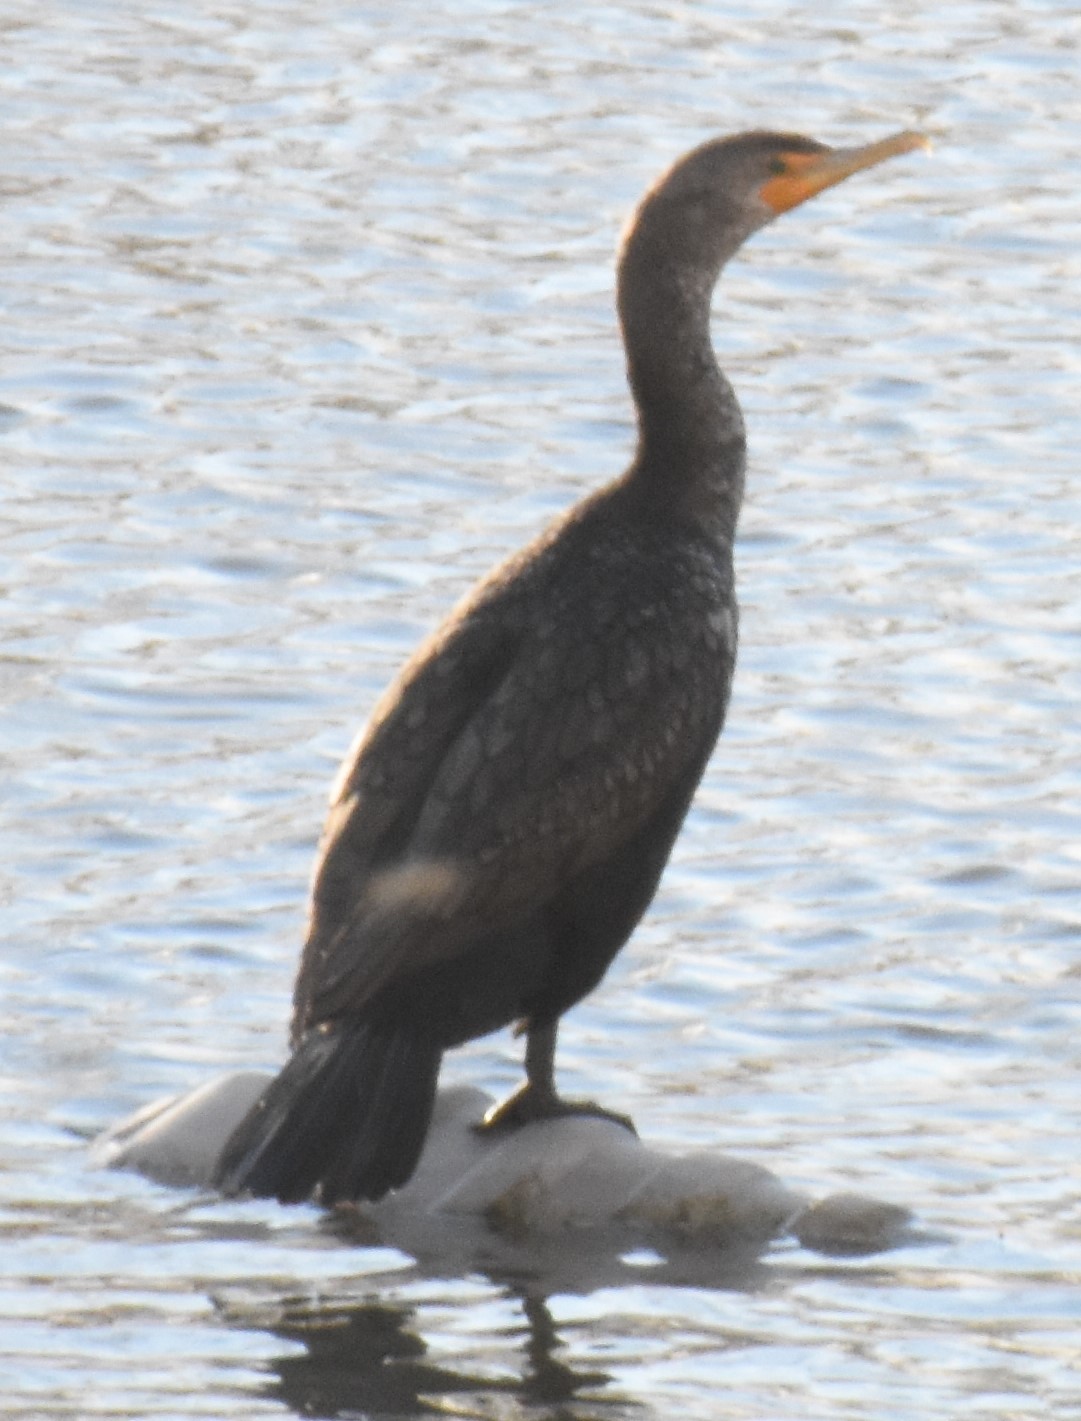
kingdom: Animalia
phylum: Chordata
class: Aves
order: Suliformes
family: Phalacrocoracidae
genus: Phalacrocorax
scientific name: Phalacrocorax auritus
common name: Double-crested cormorant
